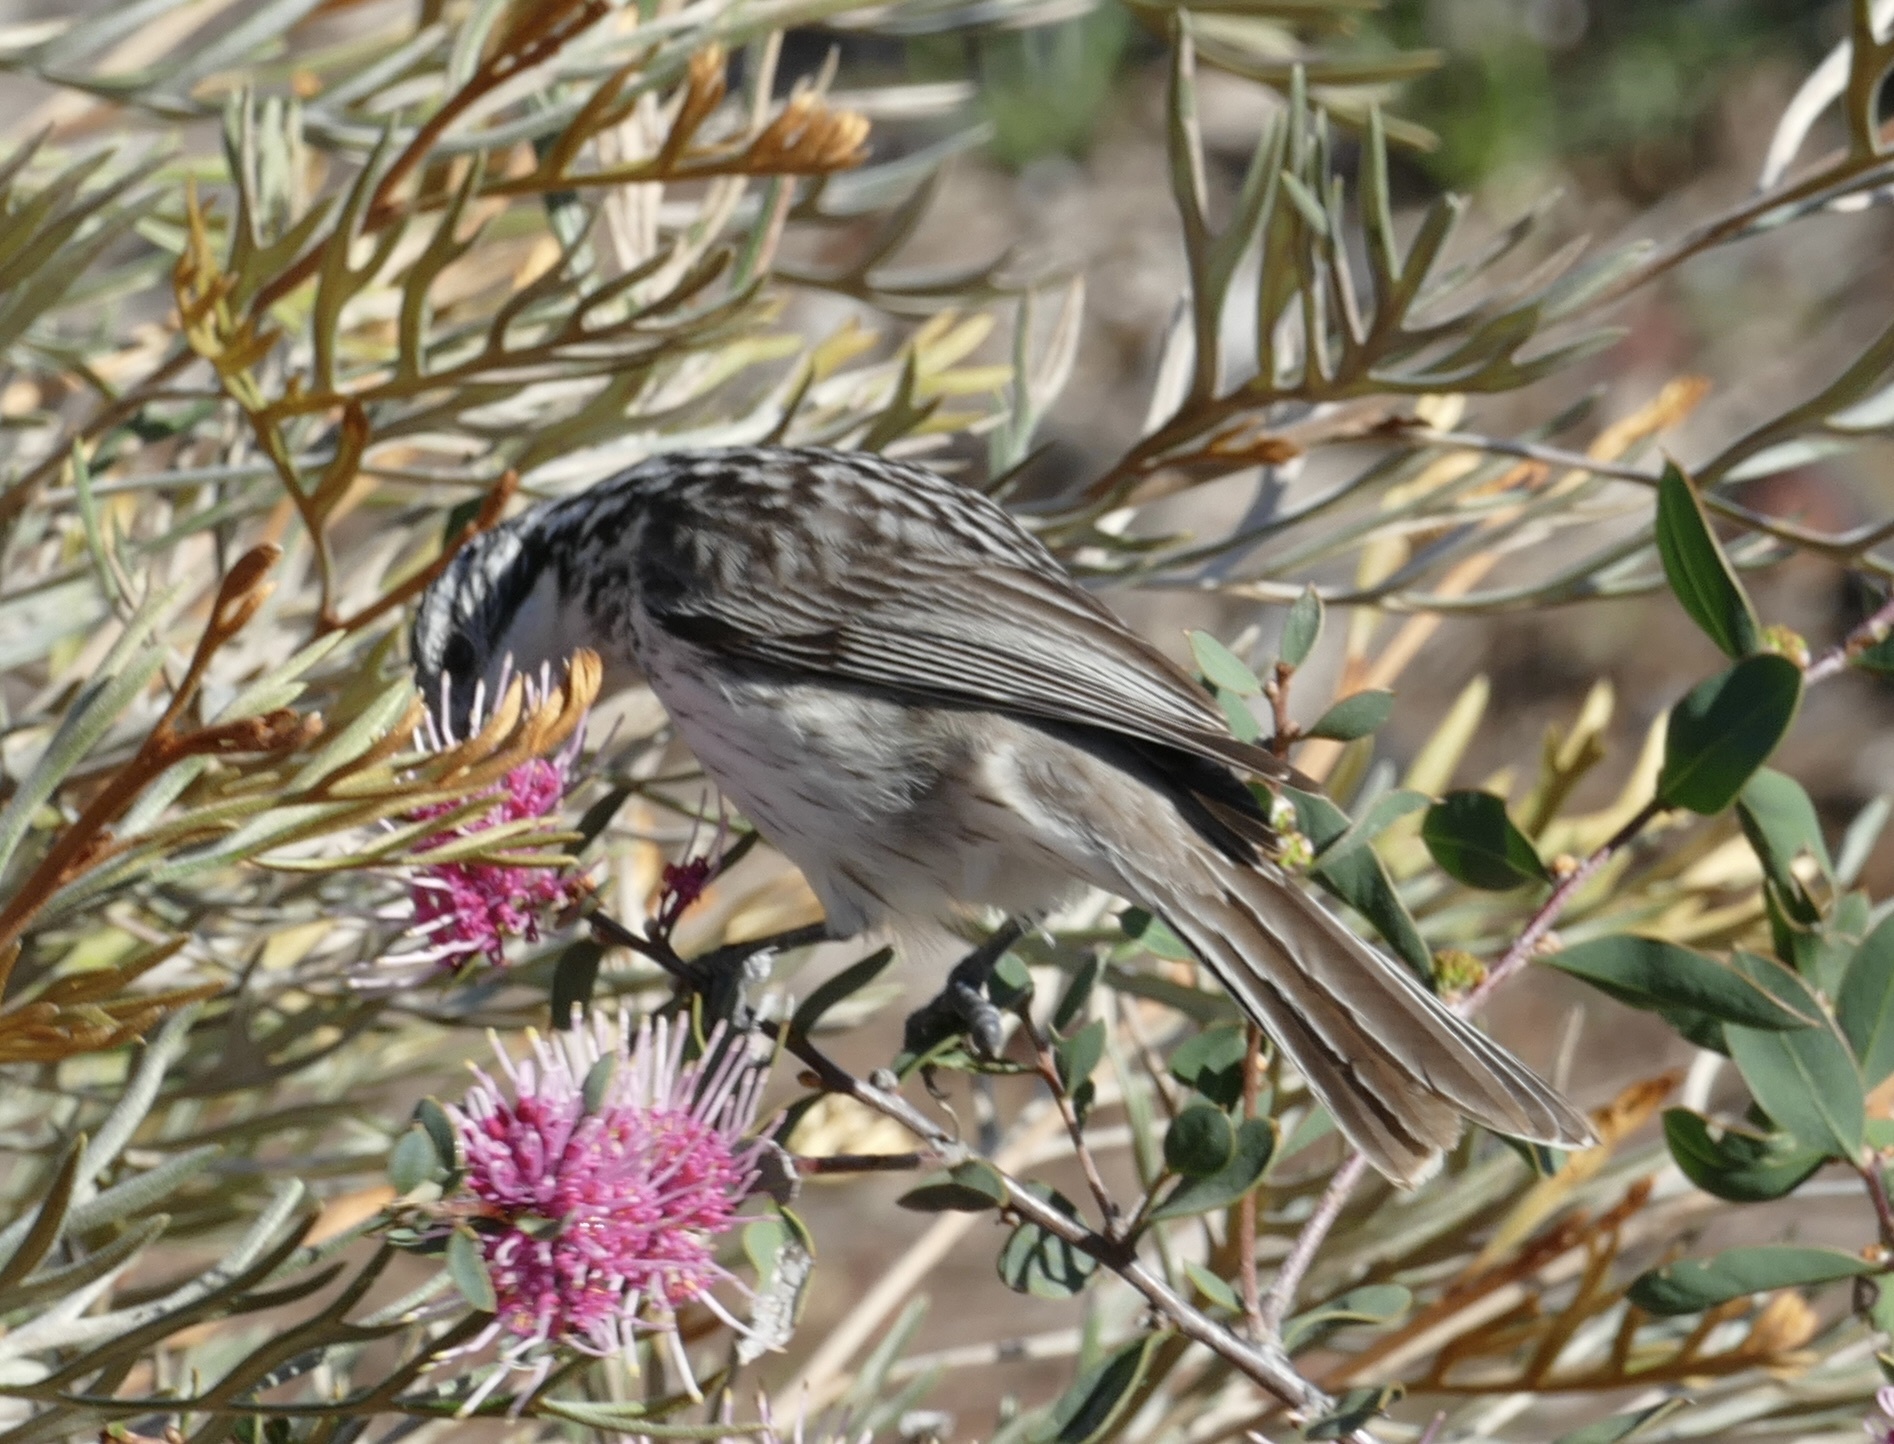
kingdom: Animalia
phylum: Chordata
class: Aves
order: Passeriformes
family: Meliphagidae
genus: Plectorhyncha
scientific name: Plectorhyncha lanceolata
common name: Striped honeyeater
